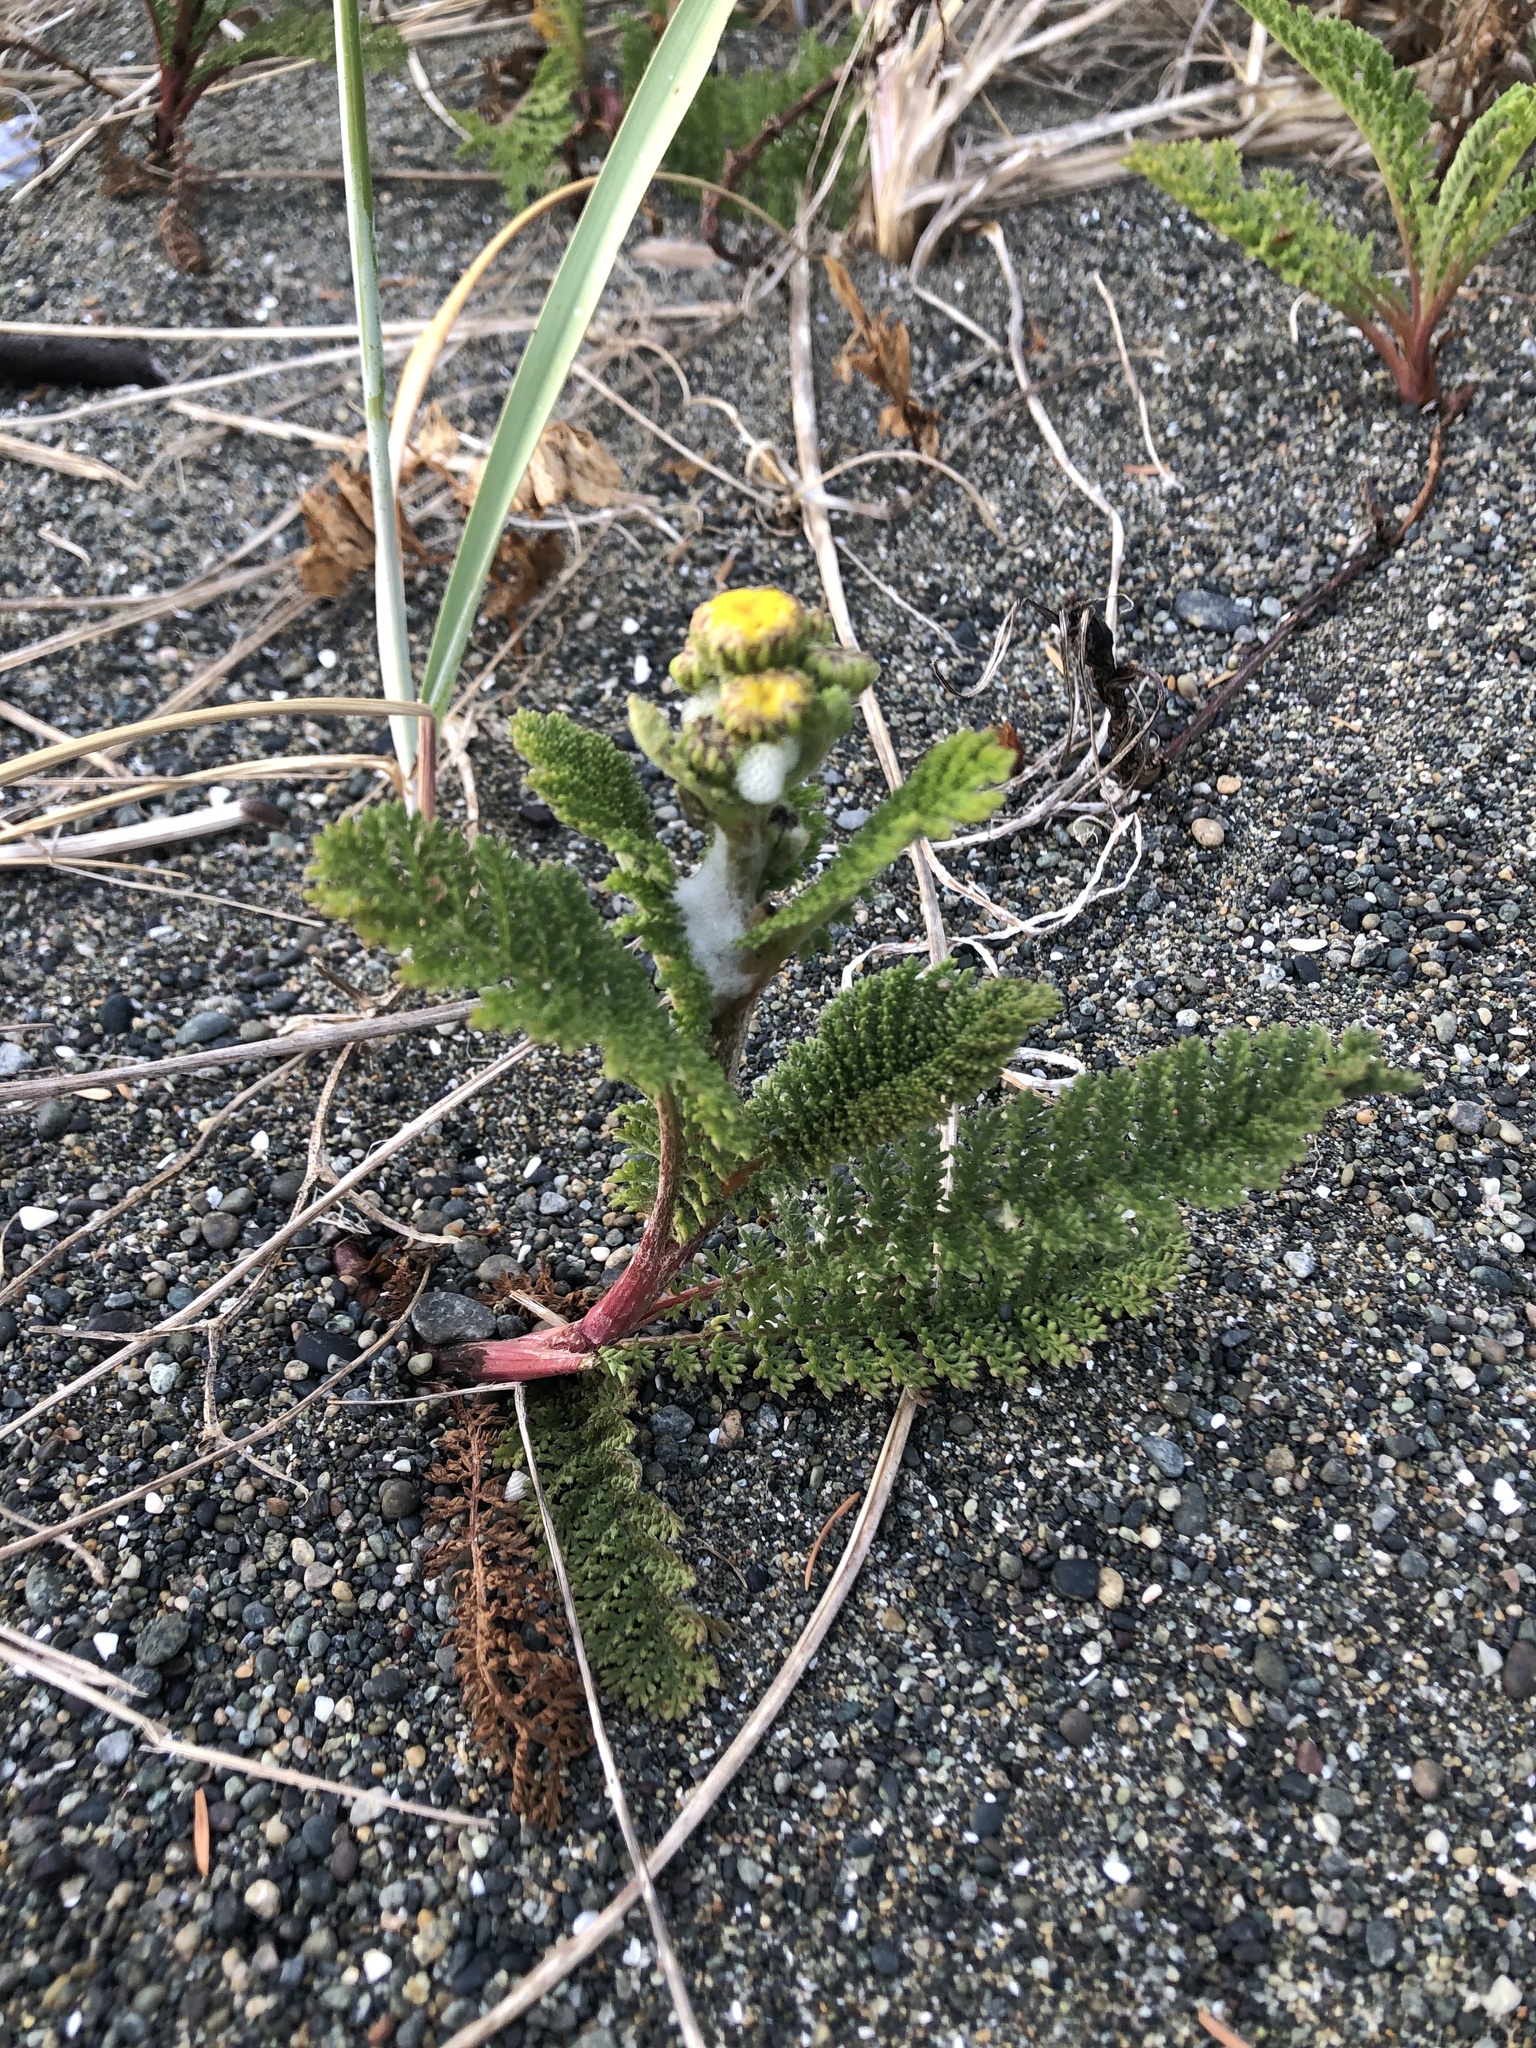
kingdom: Plantae
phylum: Tracheophyta
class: Magnoliopsida
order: Asterales
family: Asteraceae
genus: Tanacetum
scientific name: Tanacetum bipinnatum
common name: Dwarf tansy
